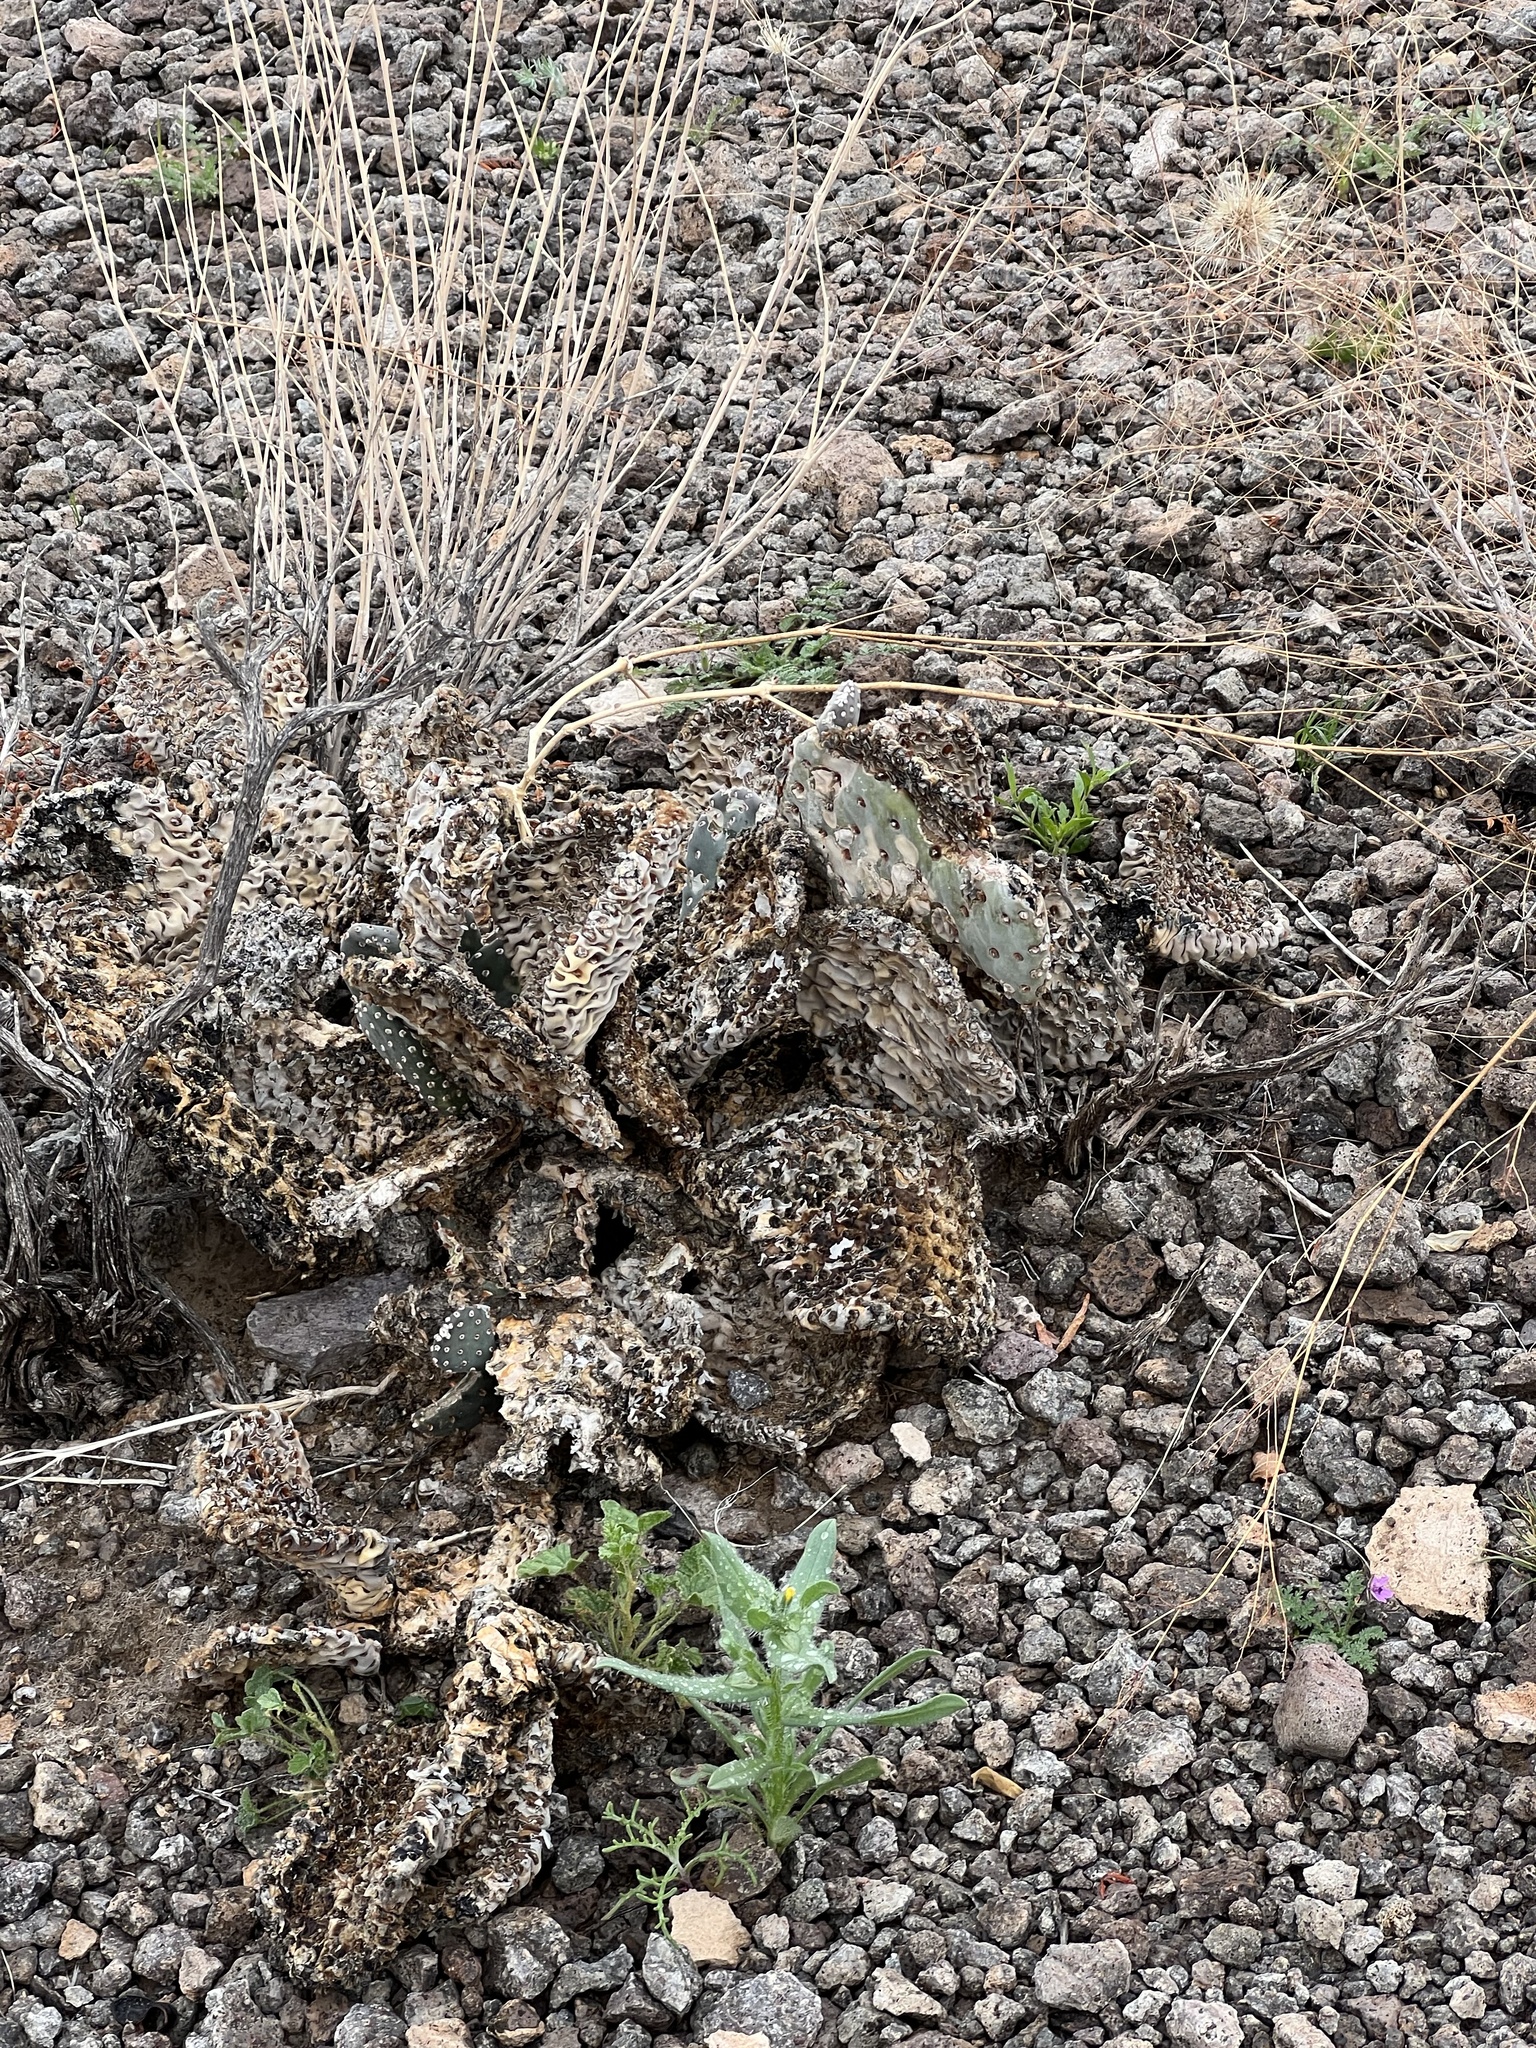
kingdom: Plantae
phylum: Tracheophyta
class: Magnoliopsida
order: Caryophyllales
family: Cactaceae
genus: Opuntia
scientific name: Opuntia basilaris
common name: Beavertail prickly-pear
